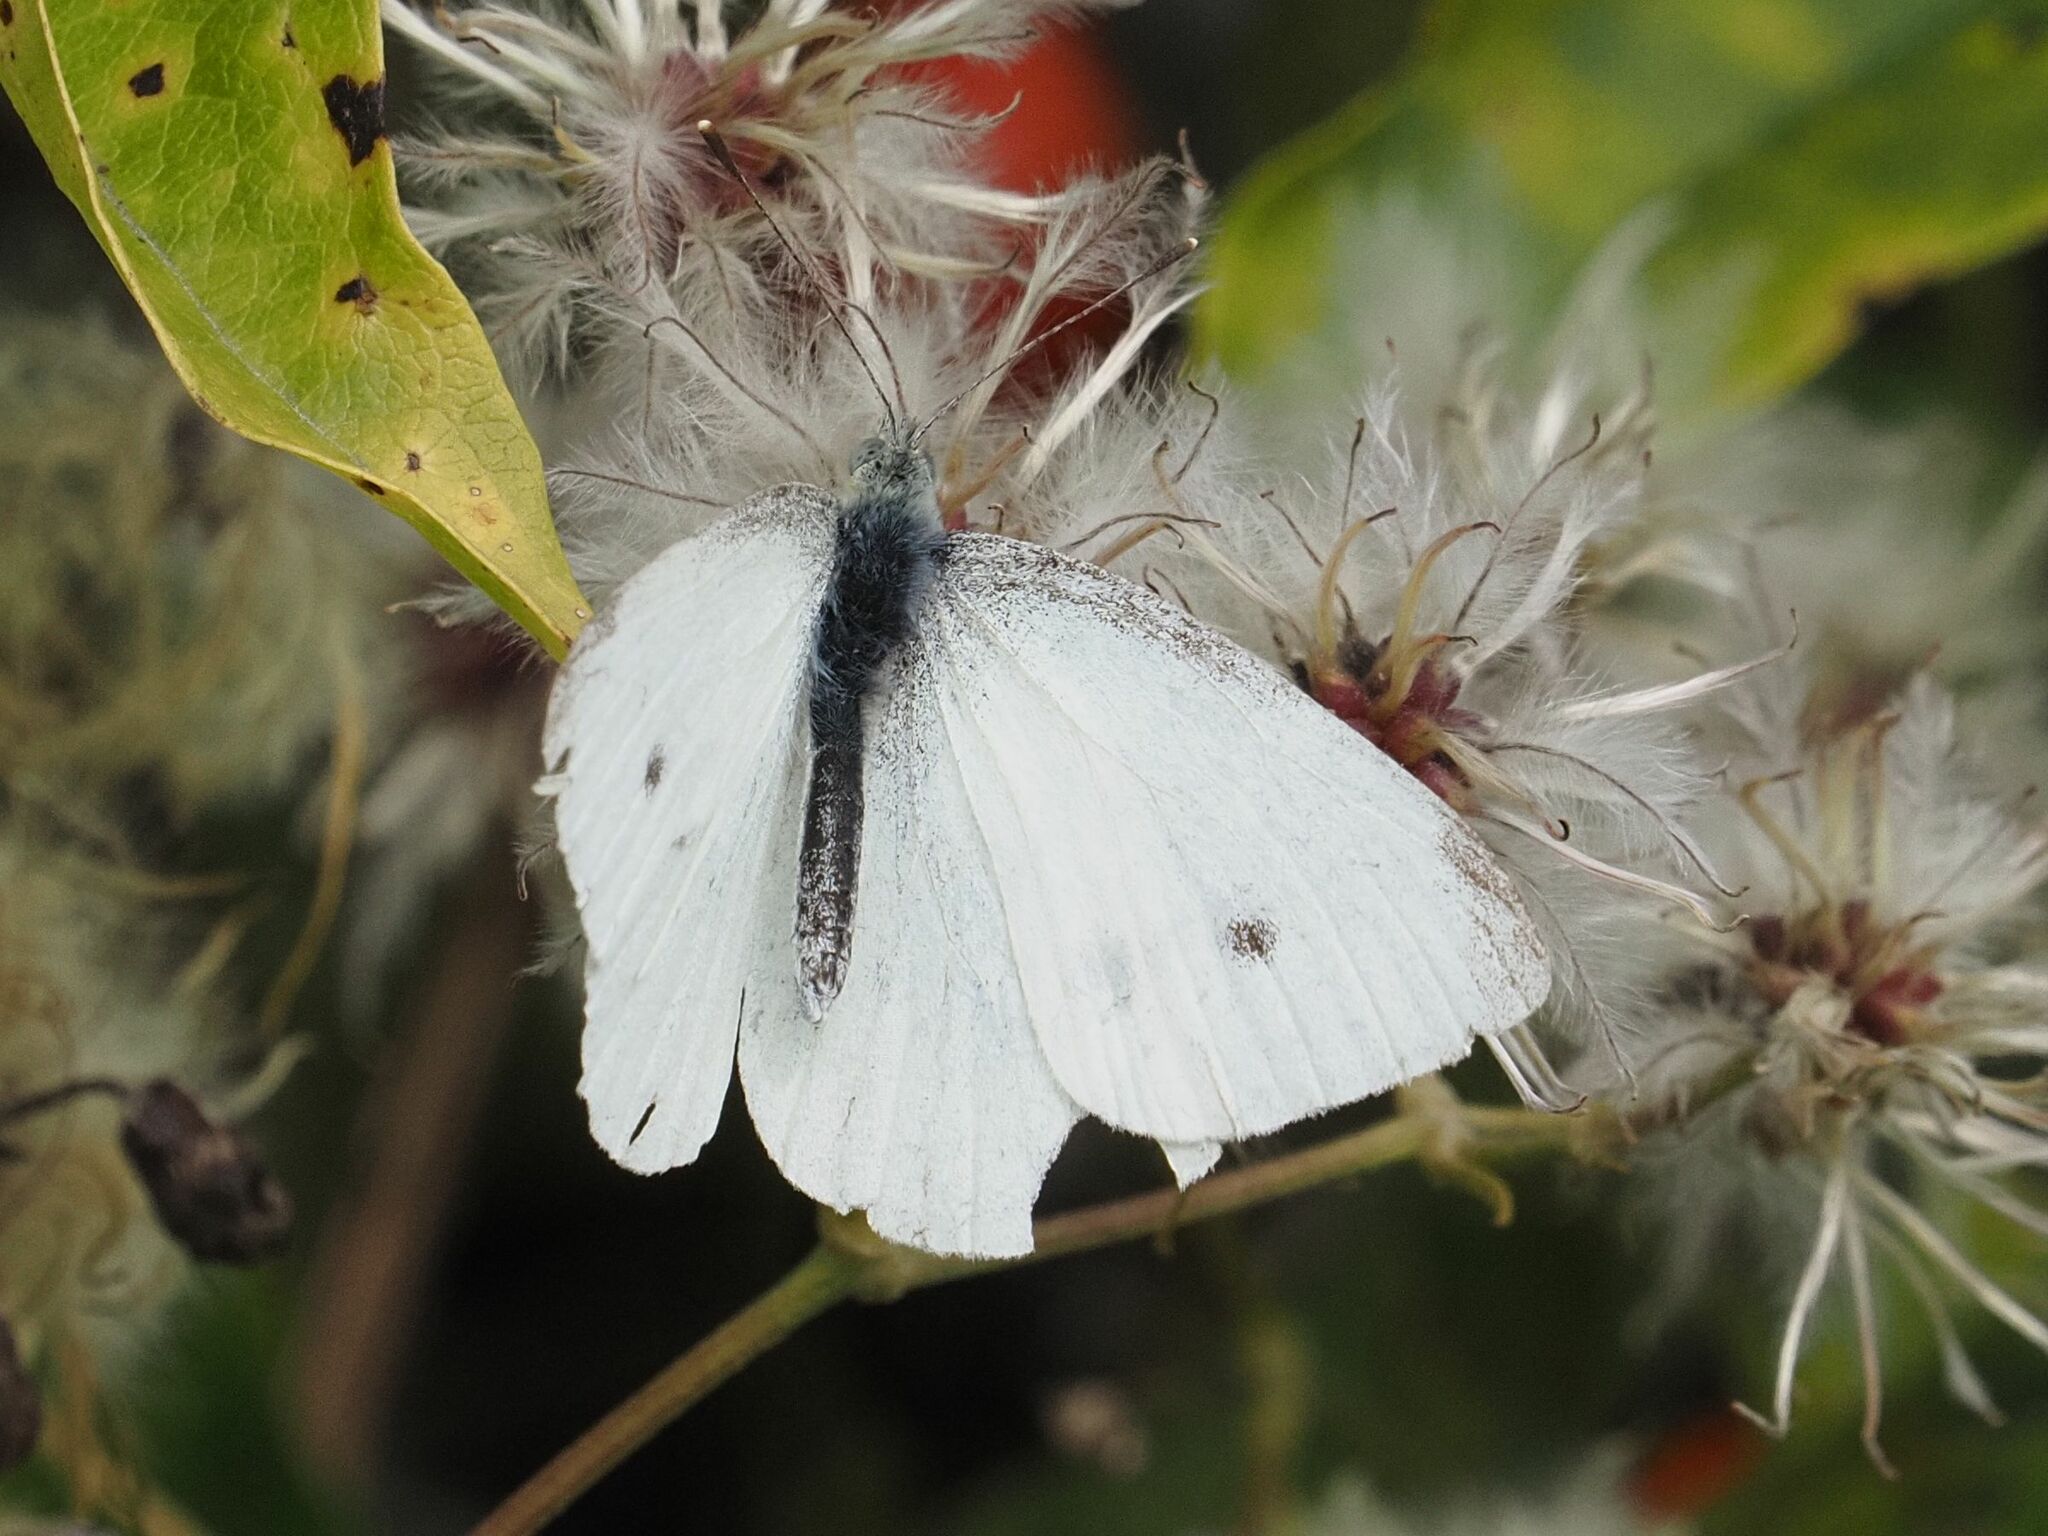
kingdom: Animalia
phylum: Arthropoda
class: Insecta
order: Lepidoptera
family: Pieridae
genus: Pieris
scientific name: Pieris rapae
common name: Small white
